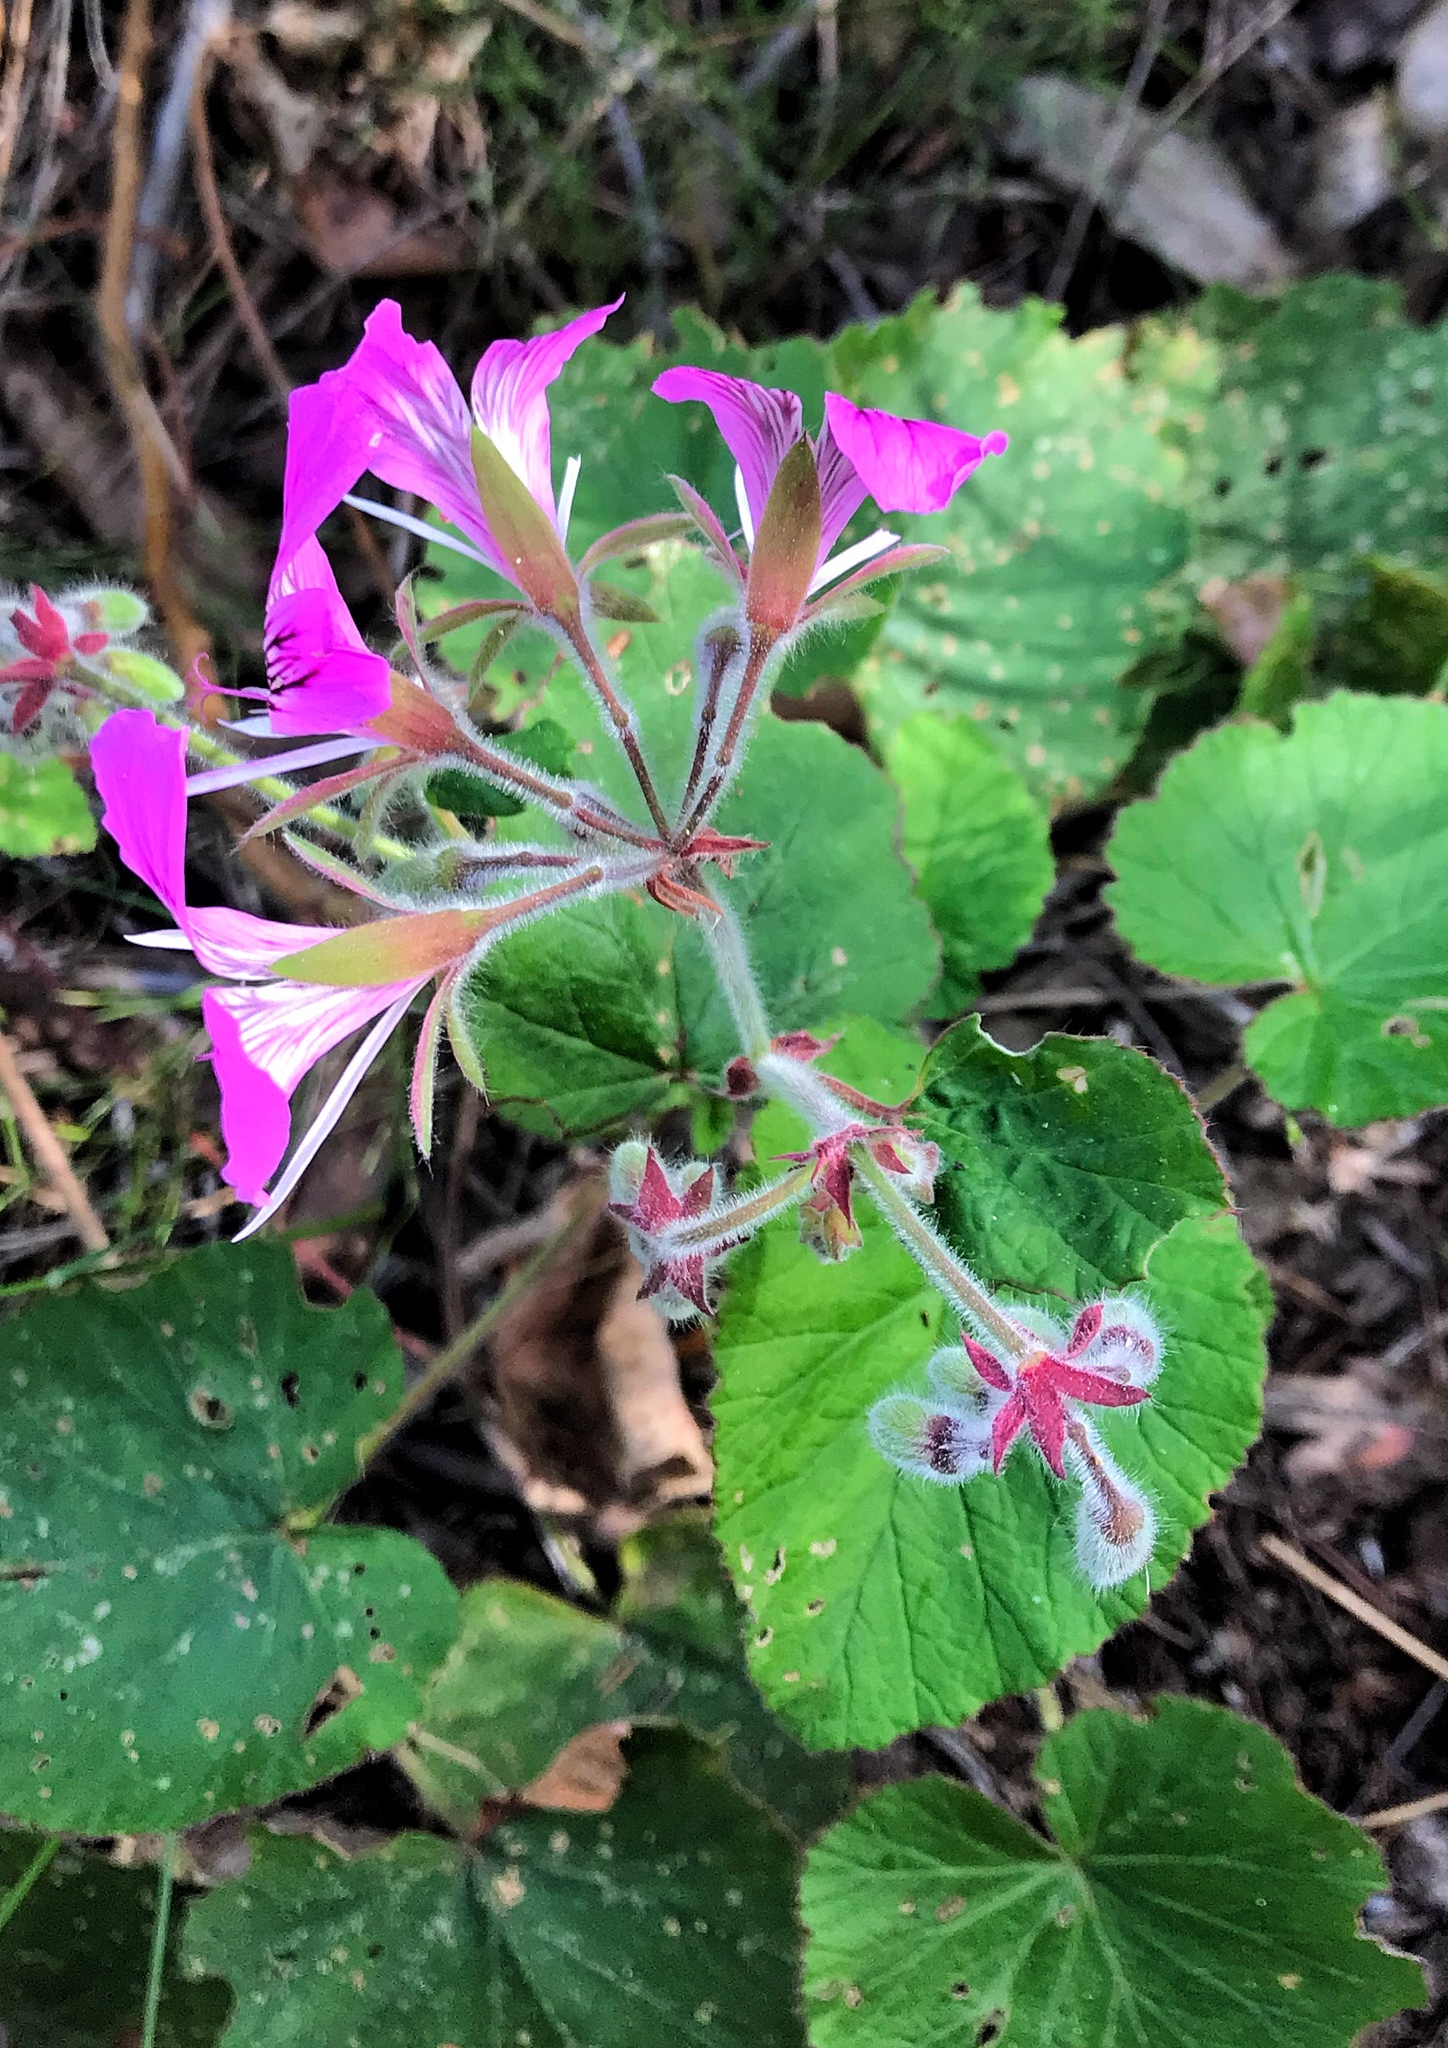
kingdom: Plantae
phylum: Tracheophyta
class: Magnoliopsida
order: Geraniales
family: Geraniaceae
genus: Pelargonium
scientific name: Pelargonium cordifolium
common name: Heart-leaf pelargonium
